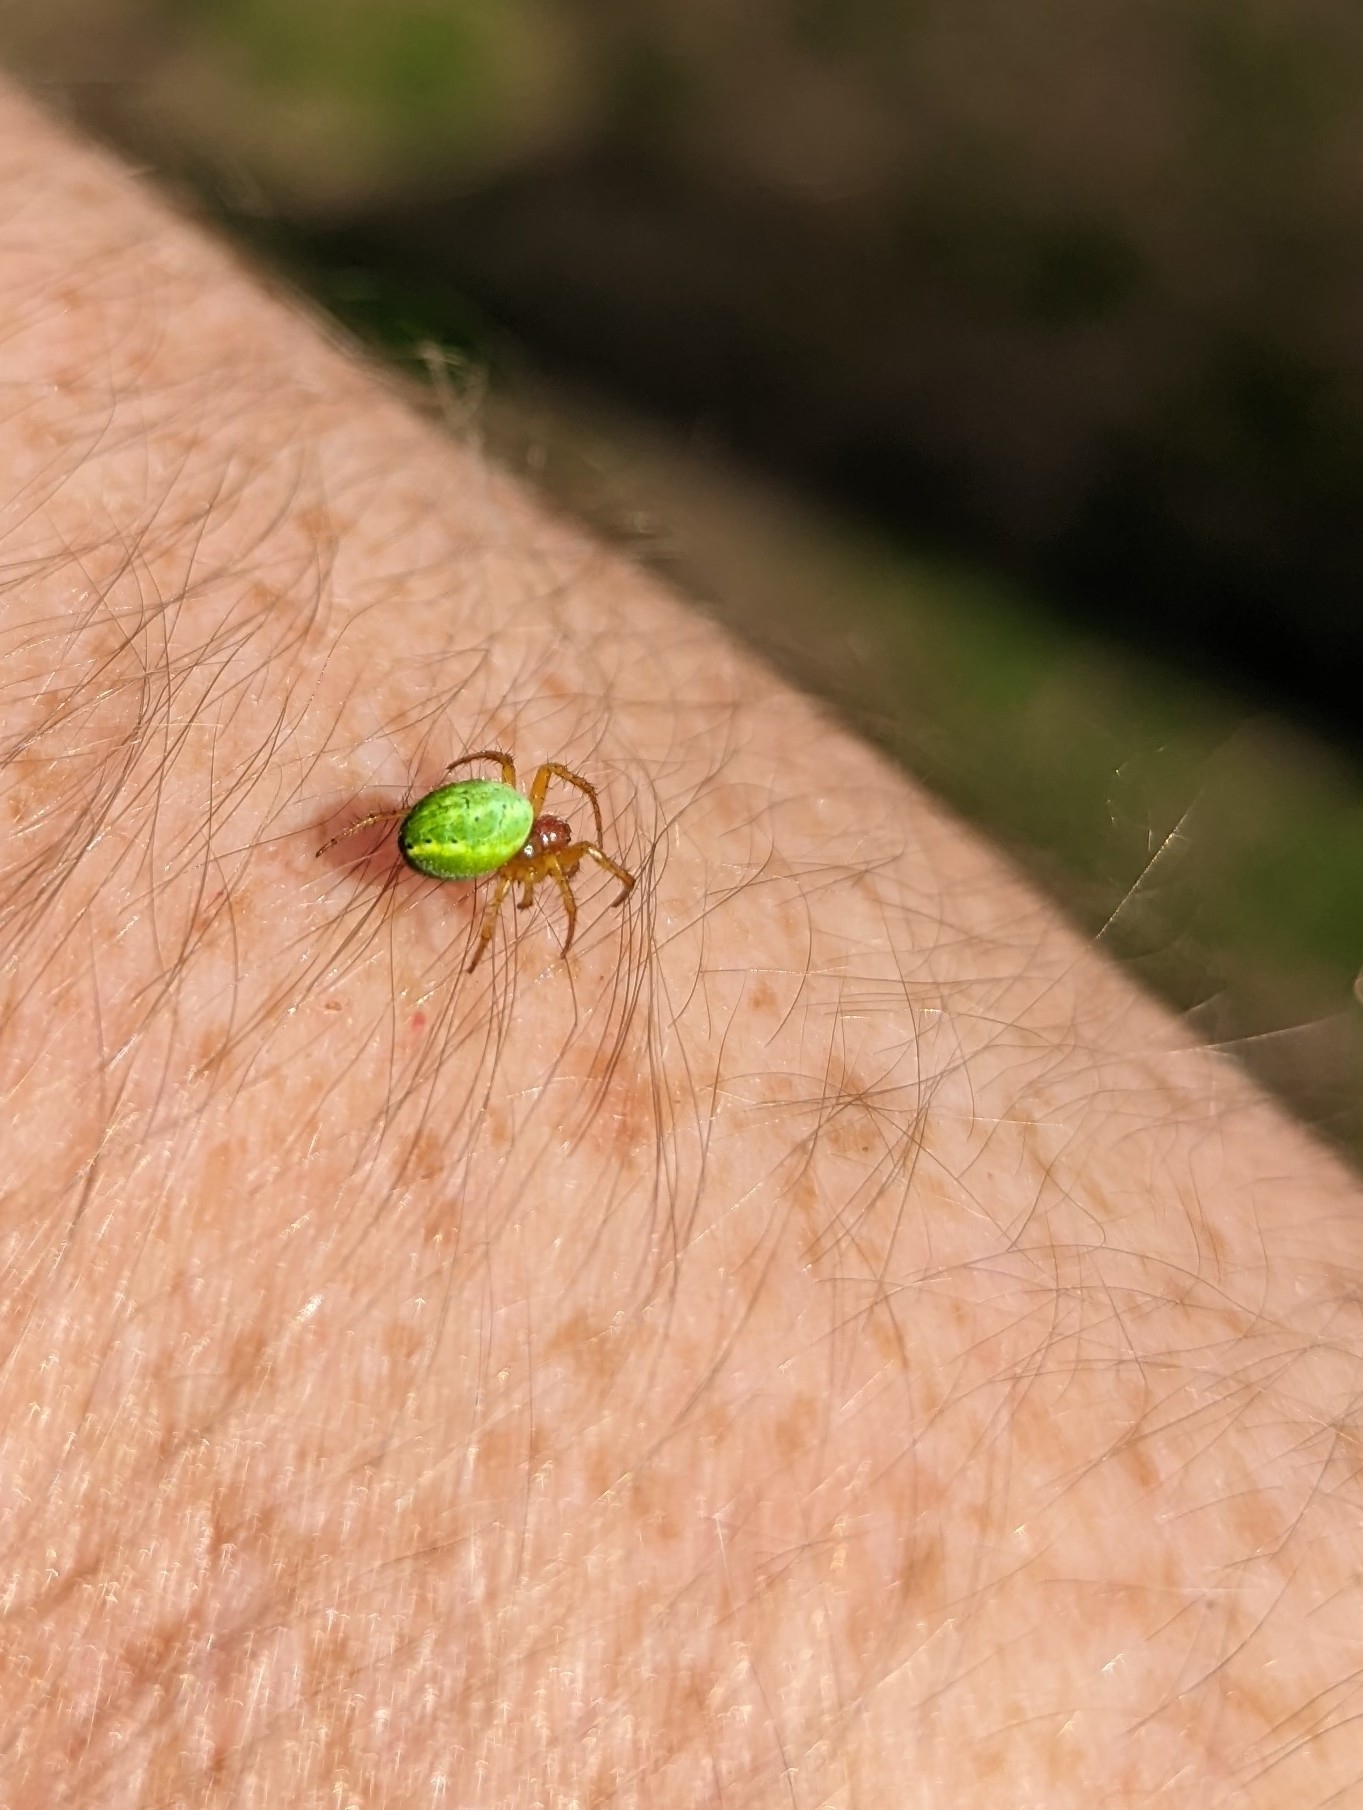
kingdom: Animalia
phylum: Arthropoda
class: Arachnida
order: Araneae
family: Araneidae
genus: Araniella
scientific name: Araniella cucurbitina
